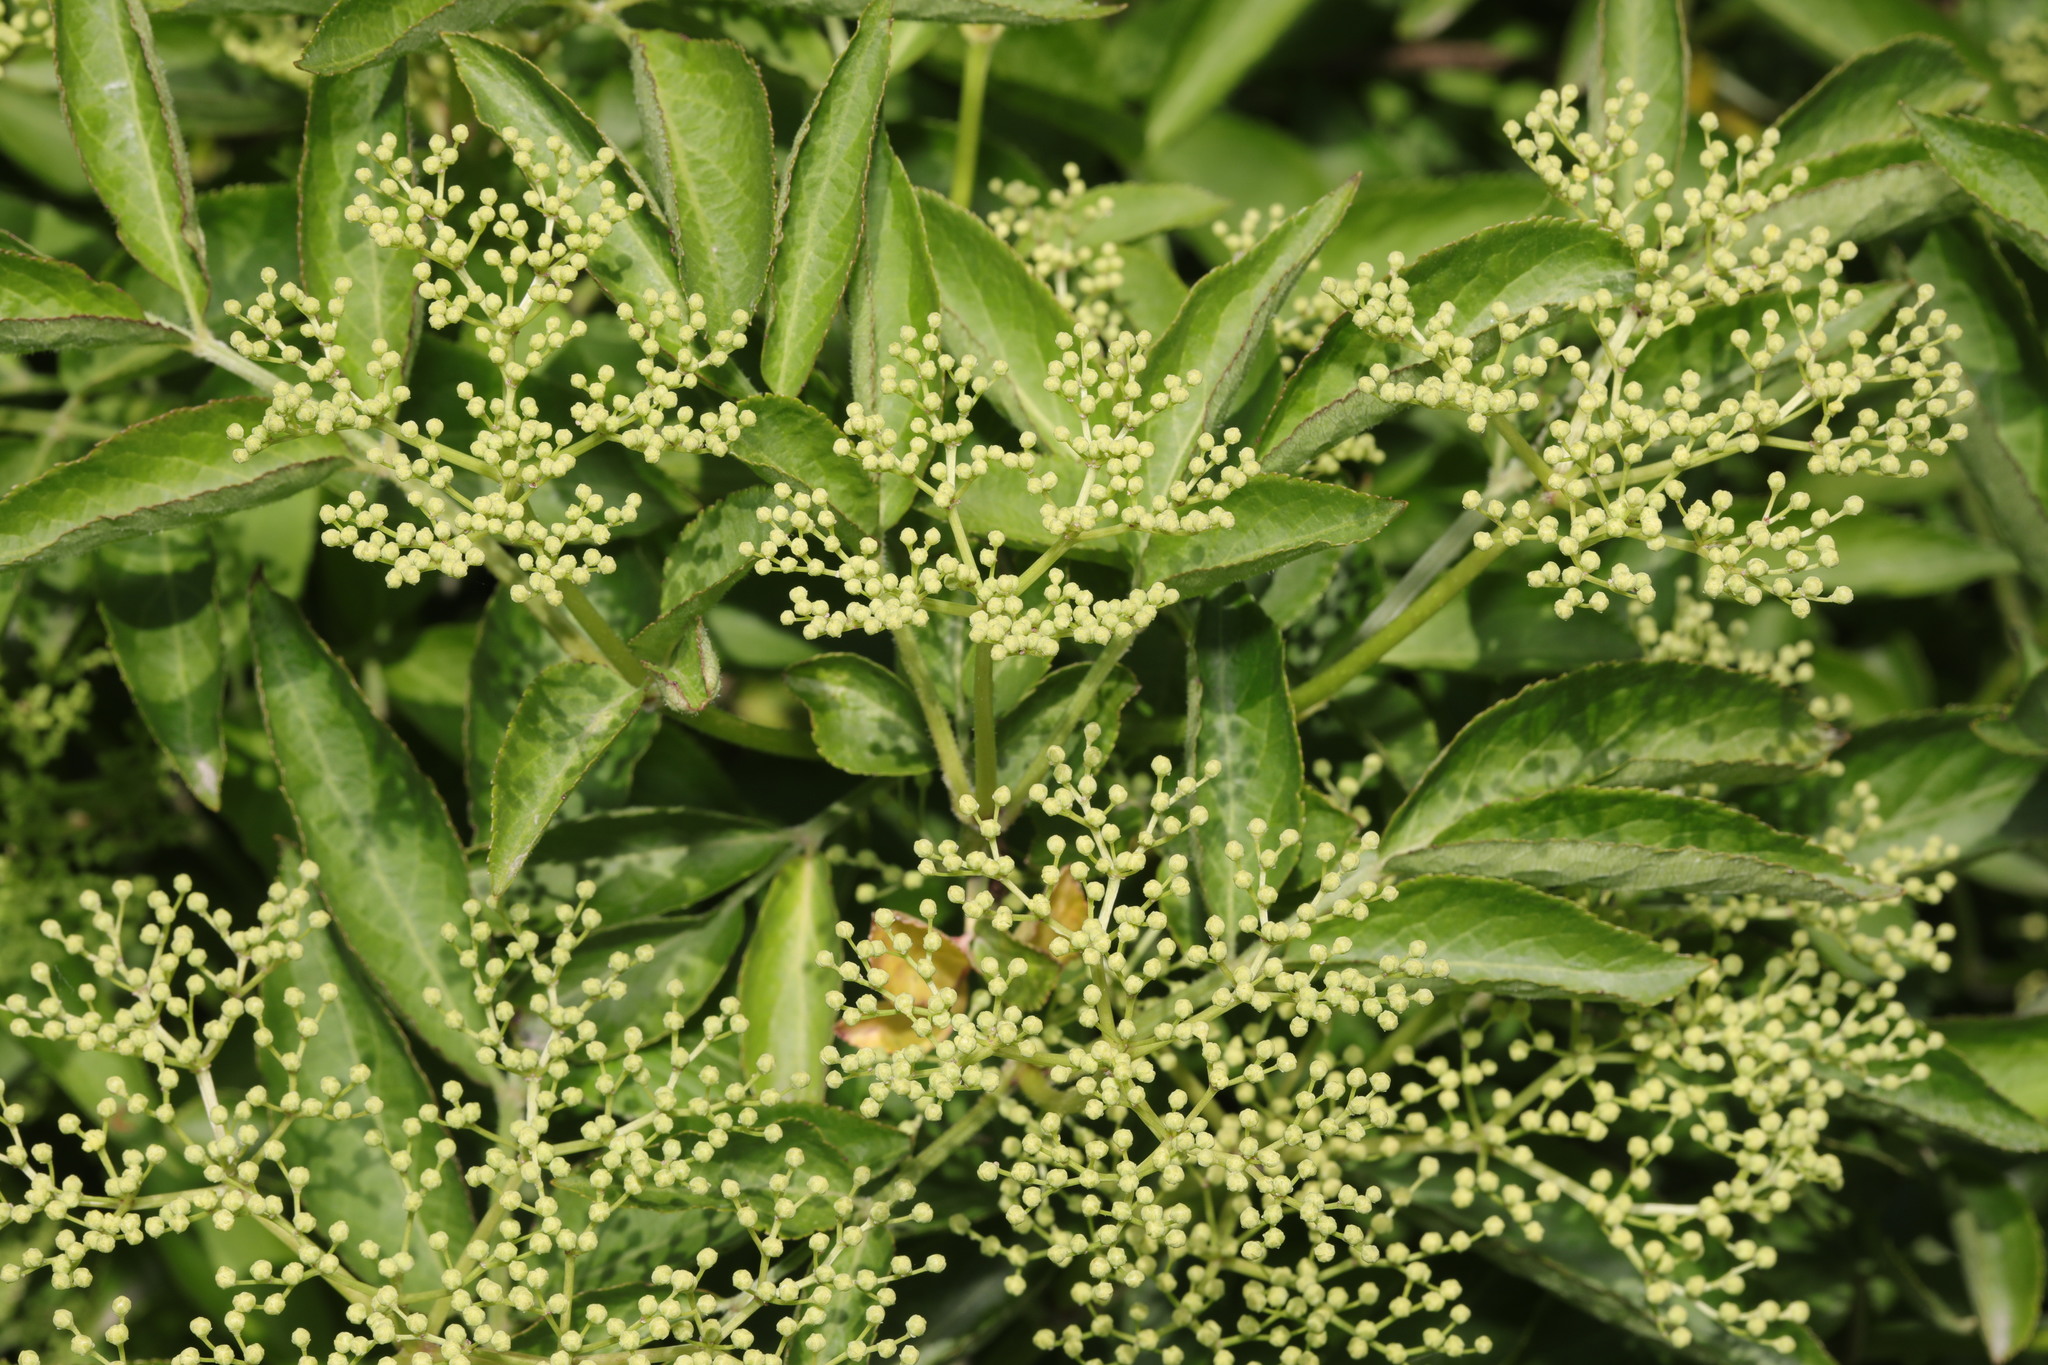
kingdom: Plantae
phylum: Tracheophyta
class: Magnoliopsida
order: Dipsacales
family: Viburnaceae
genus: Sambucus
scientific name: Sambucus nigra
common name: Elder
